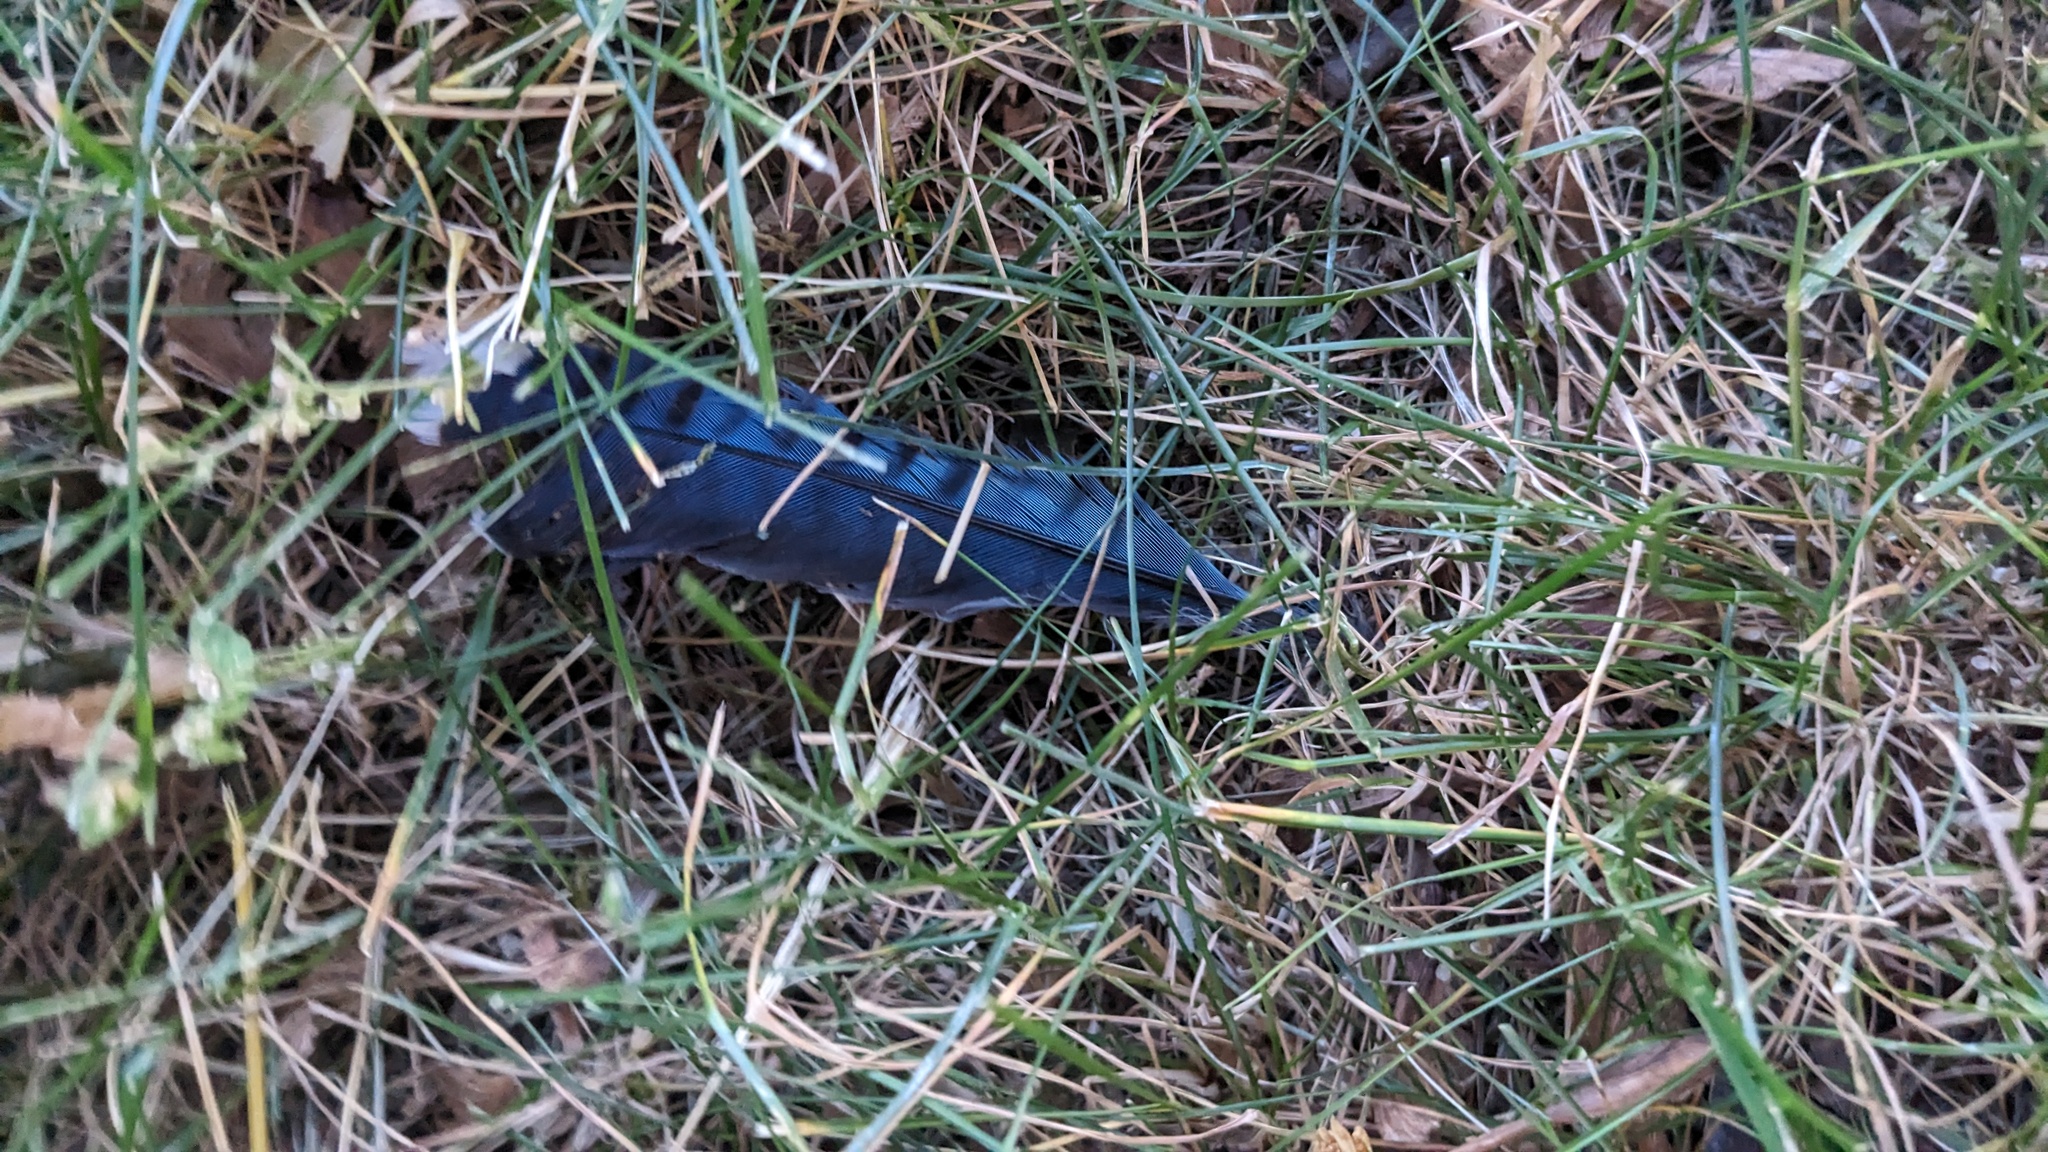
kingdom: Animalia
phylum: Chordata
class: Aves
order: Passeriformes
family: Corvidae
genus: Cyanocitta
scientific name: Cyanocitta cristata
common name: Blue jay
